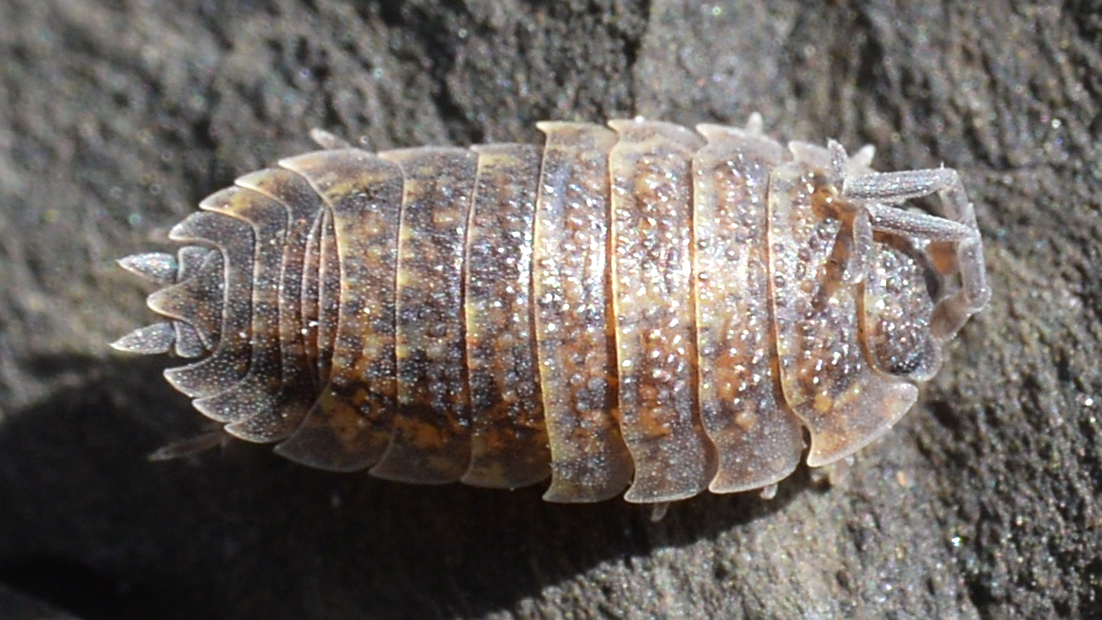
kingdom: Animalia
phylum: Arthropoda
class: Malacostraca
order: Isopoda
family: Porcellionidae
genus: Porcellio
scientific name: Porcellio scaber
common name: Common rough woodlouse
